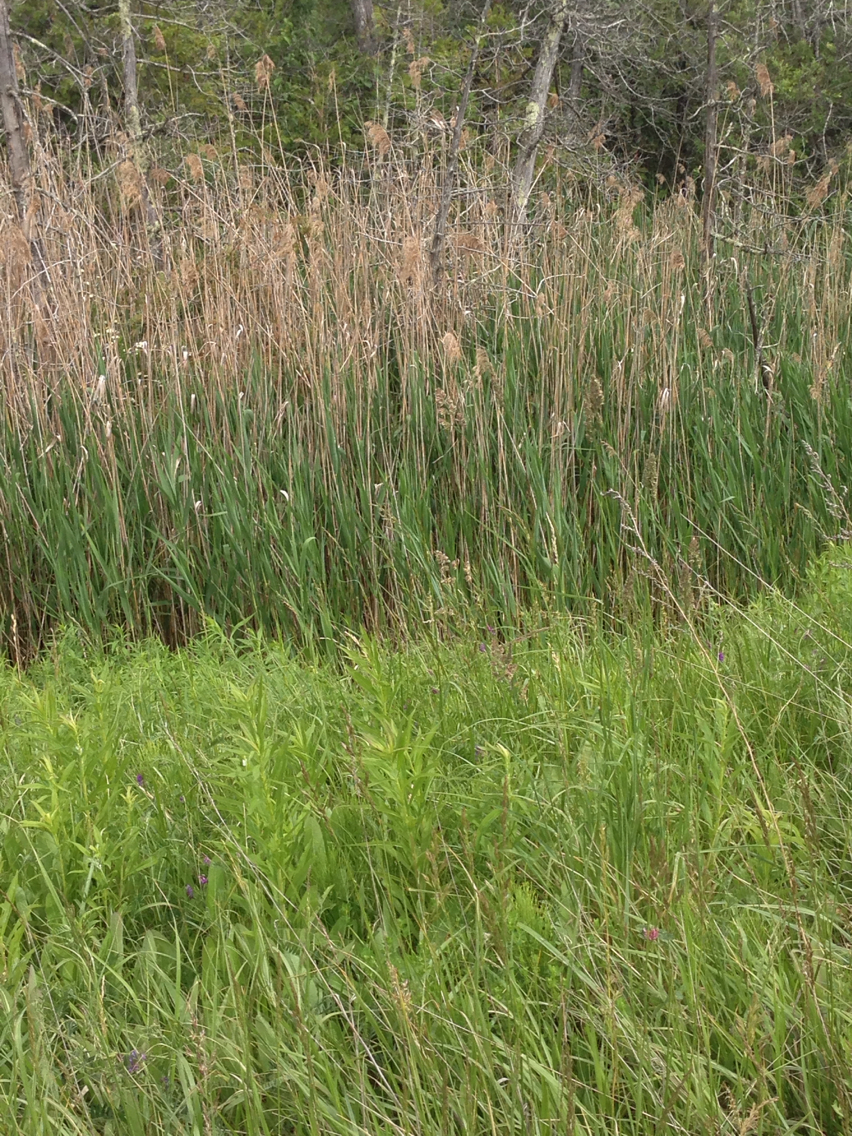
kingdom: Plantae
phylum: Tracheophyta
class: Liliopsida
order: Poales
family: Poaceae
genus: Phragmites
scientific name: Phragmites australis
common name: Common reed
